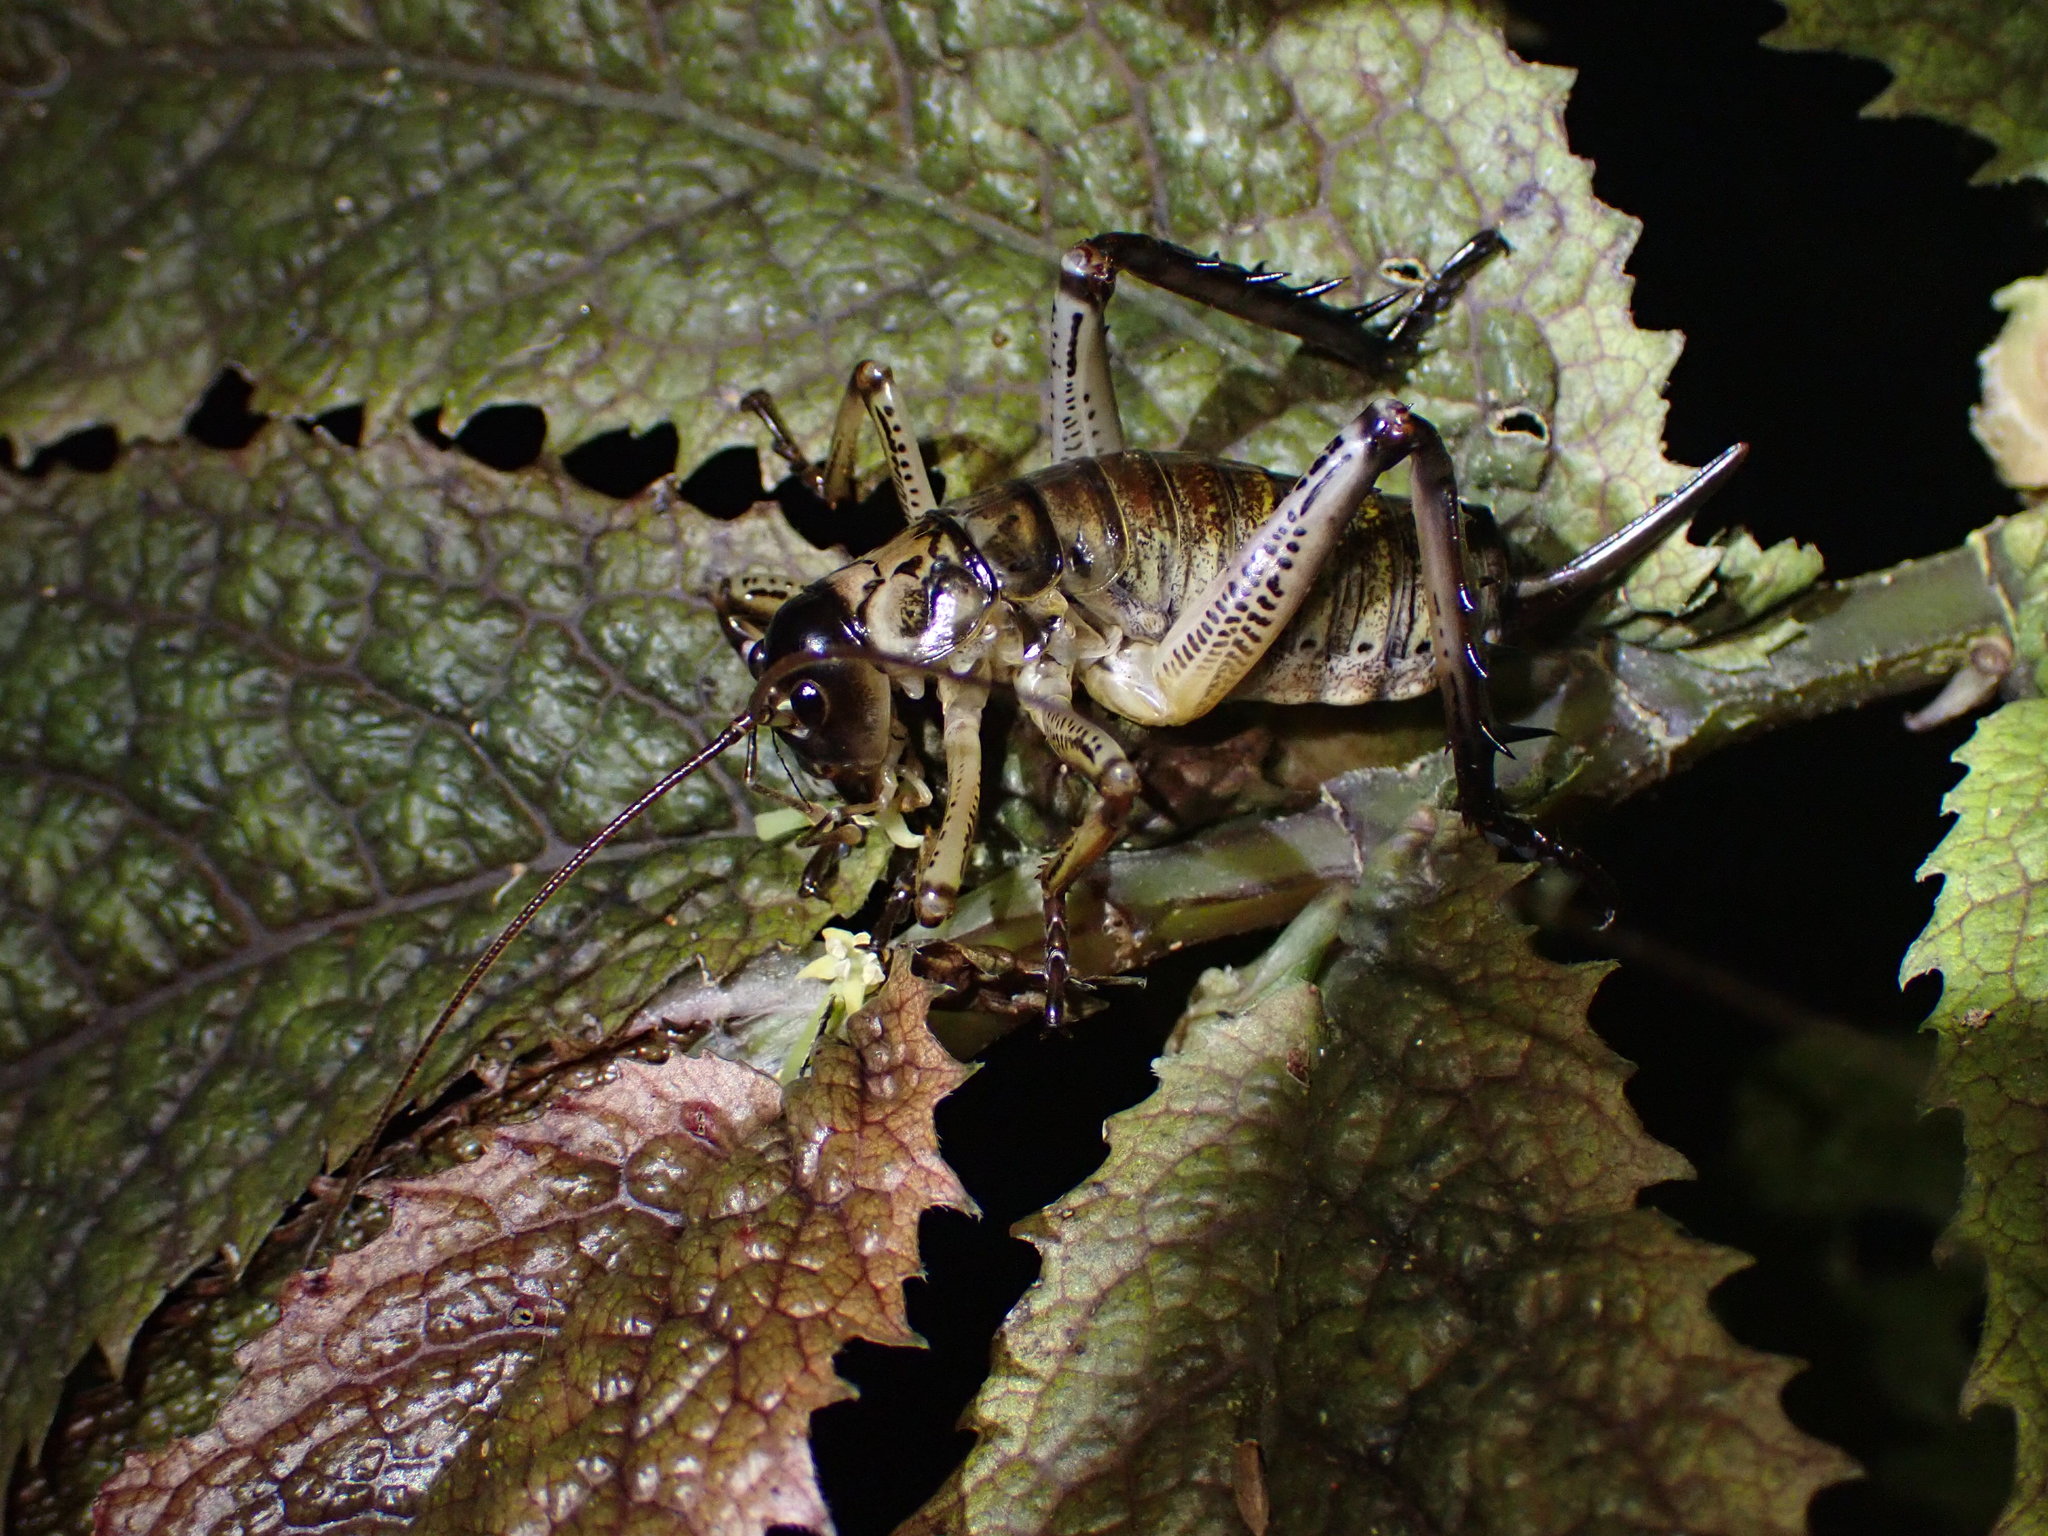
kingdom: Animalia
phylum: Arthropoda
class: Insecta
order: Orthoptera
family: Anostostomatidae
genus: Hemideina
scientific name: Hemideina thoracica
